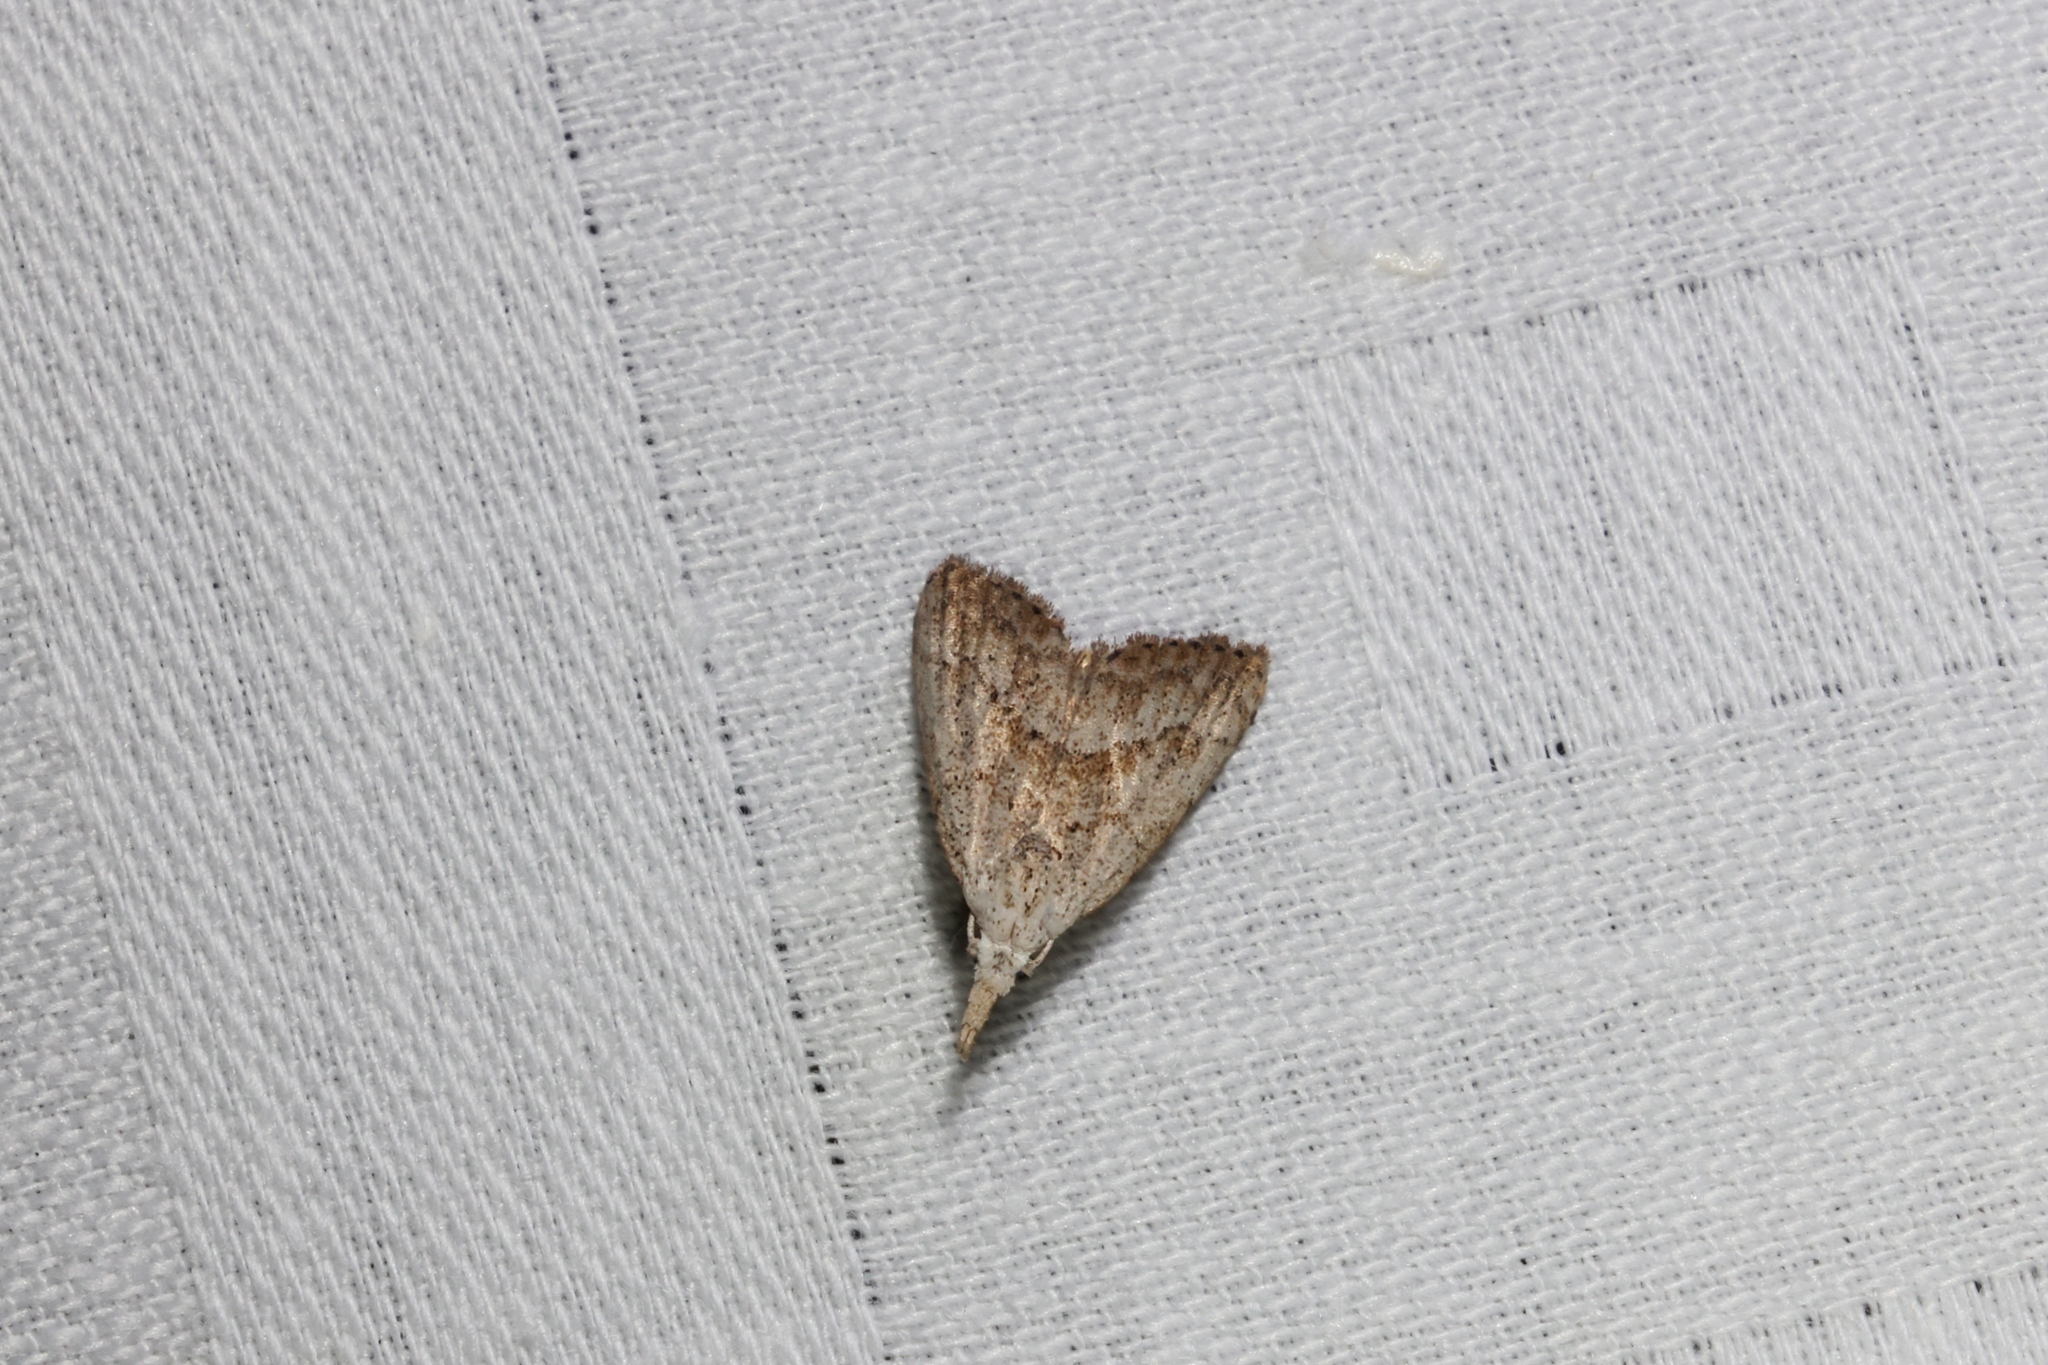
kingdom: Animalia
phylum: Arthropoda
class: Insecta
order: Lepidoptera
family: Nolidae
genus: Meganola
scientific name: Meganola brunellus
